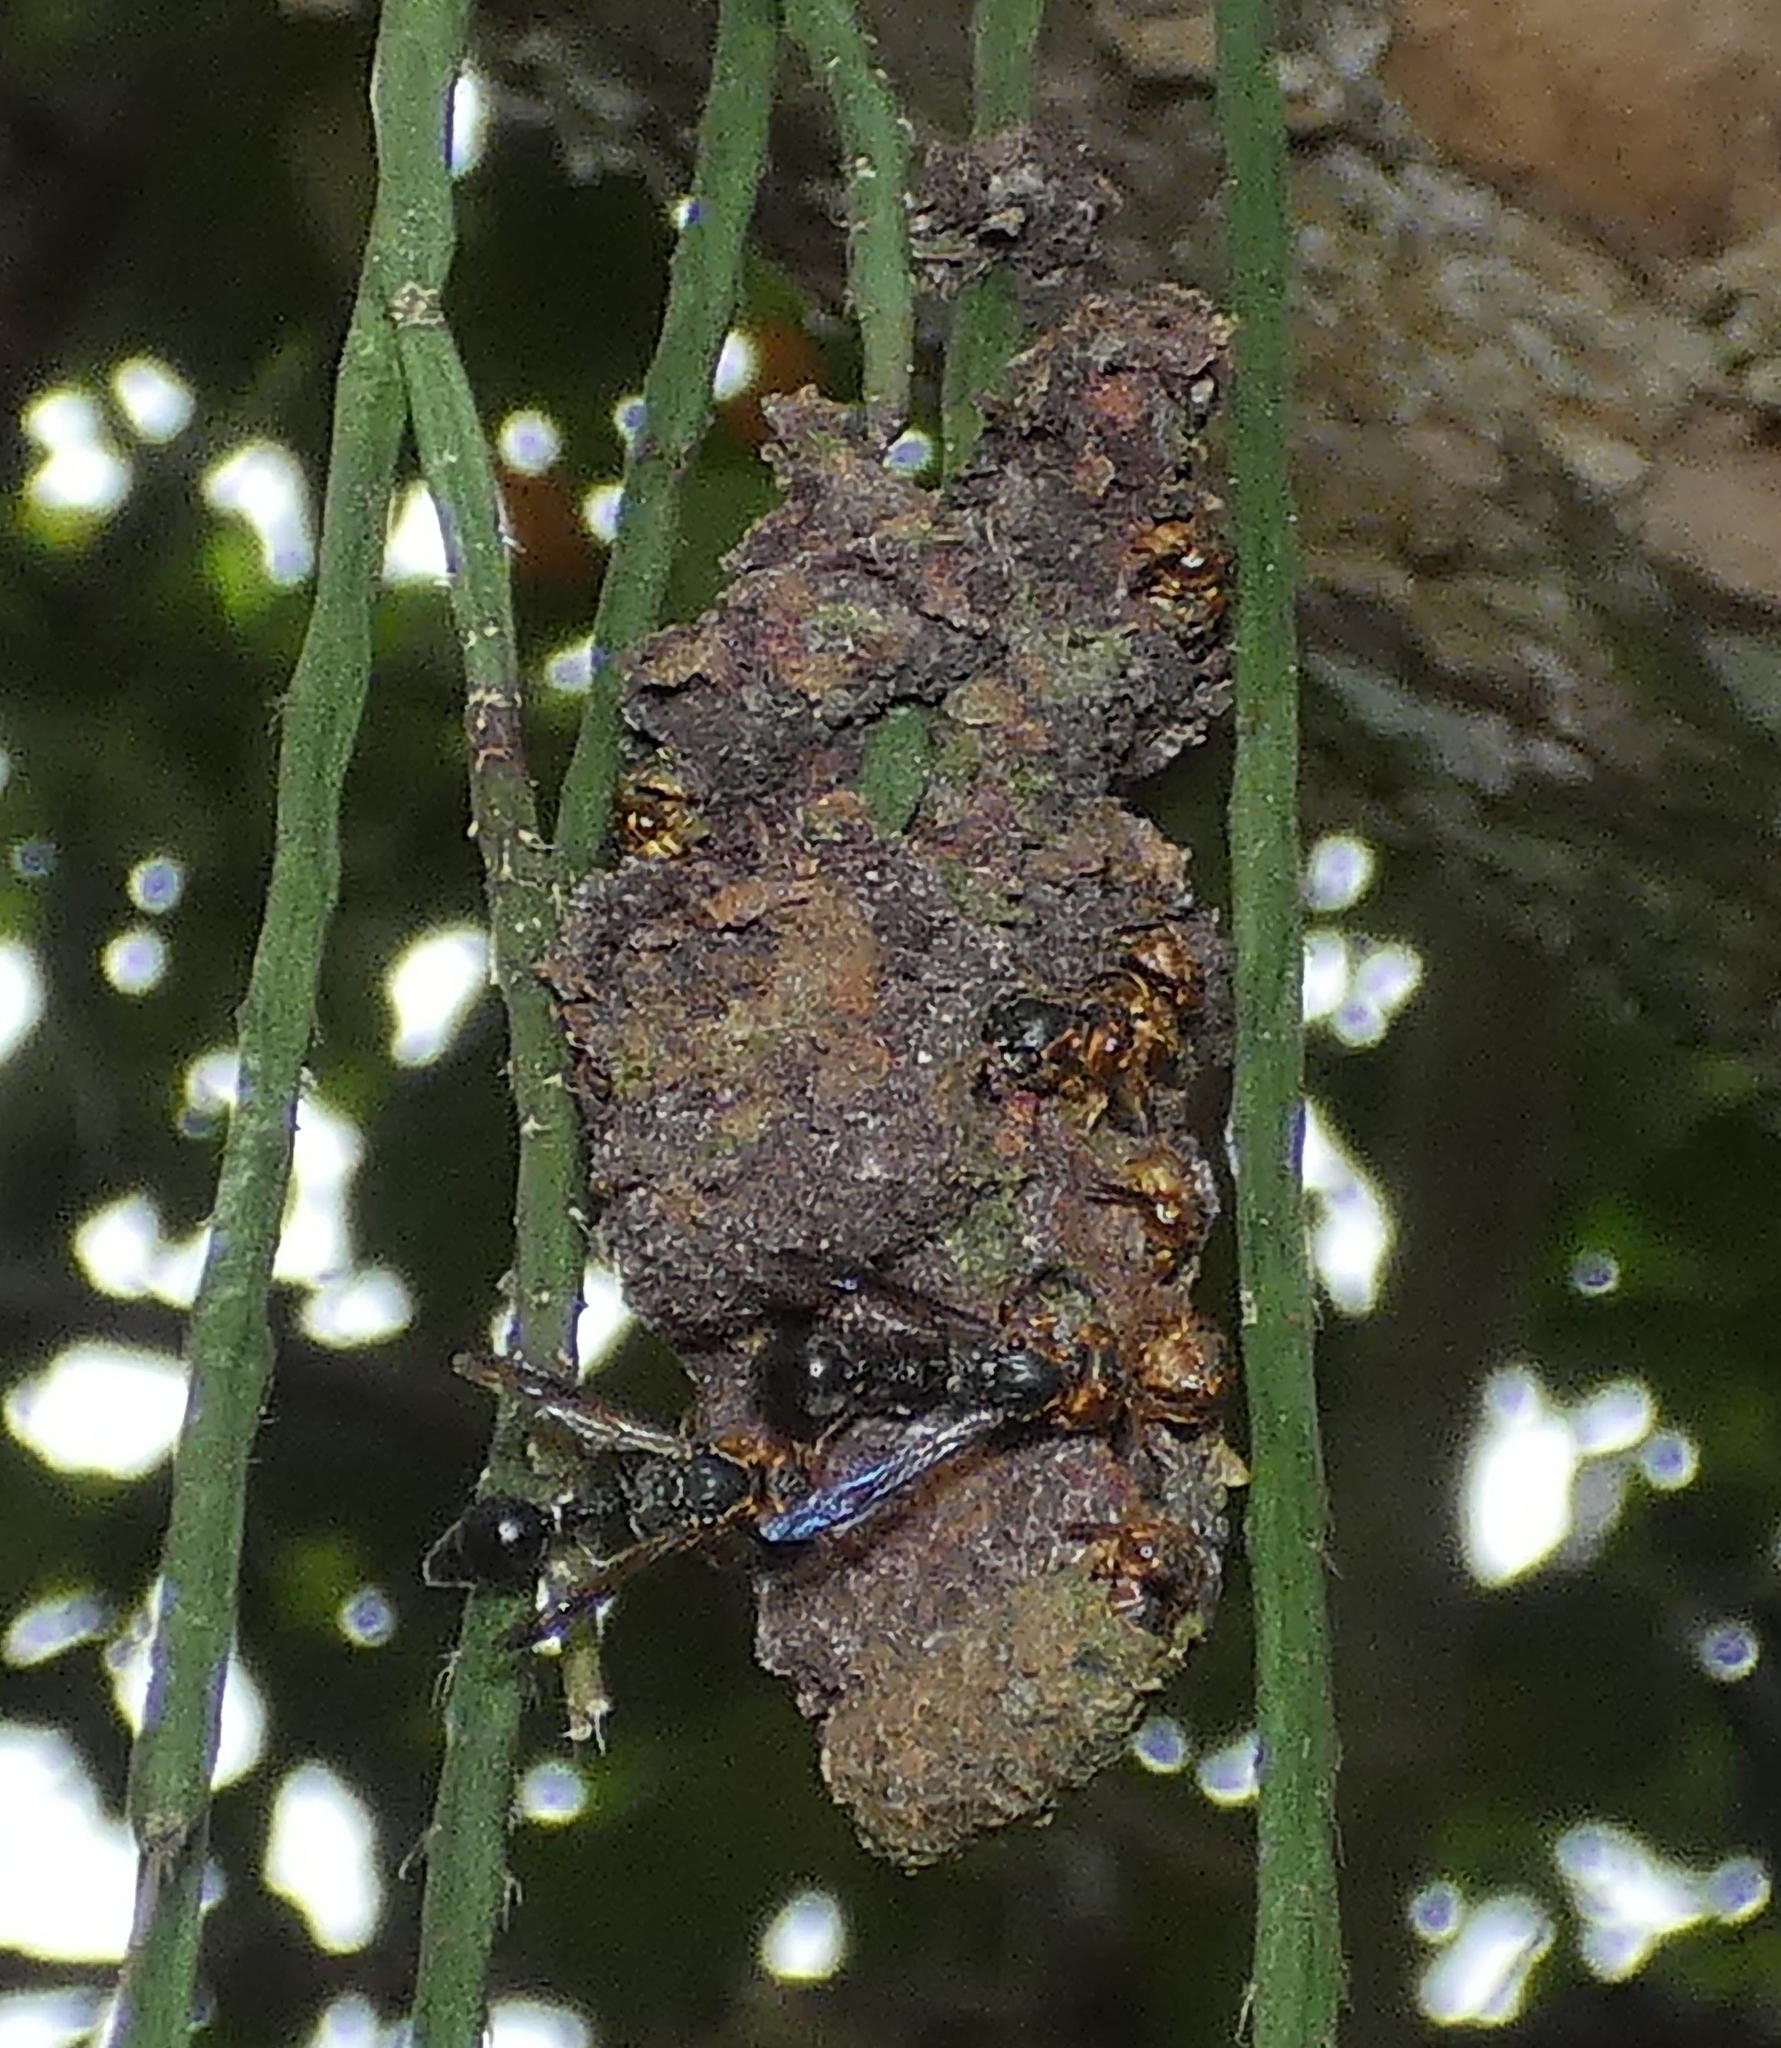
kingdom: Animalia
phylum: Arthropoda
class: Insecta
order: Hymenoptera
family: Eumenidae
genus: Zethus
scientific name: Zethus miniatus
